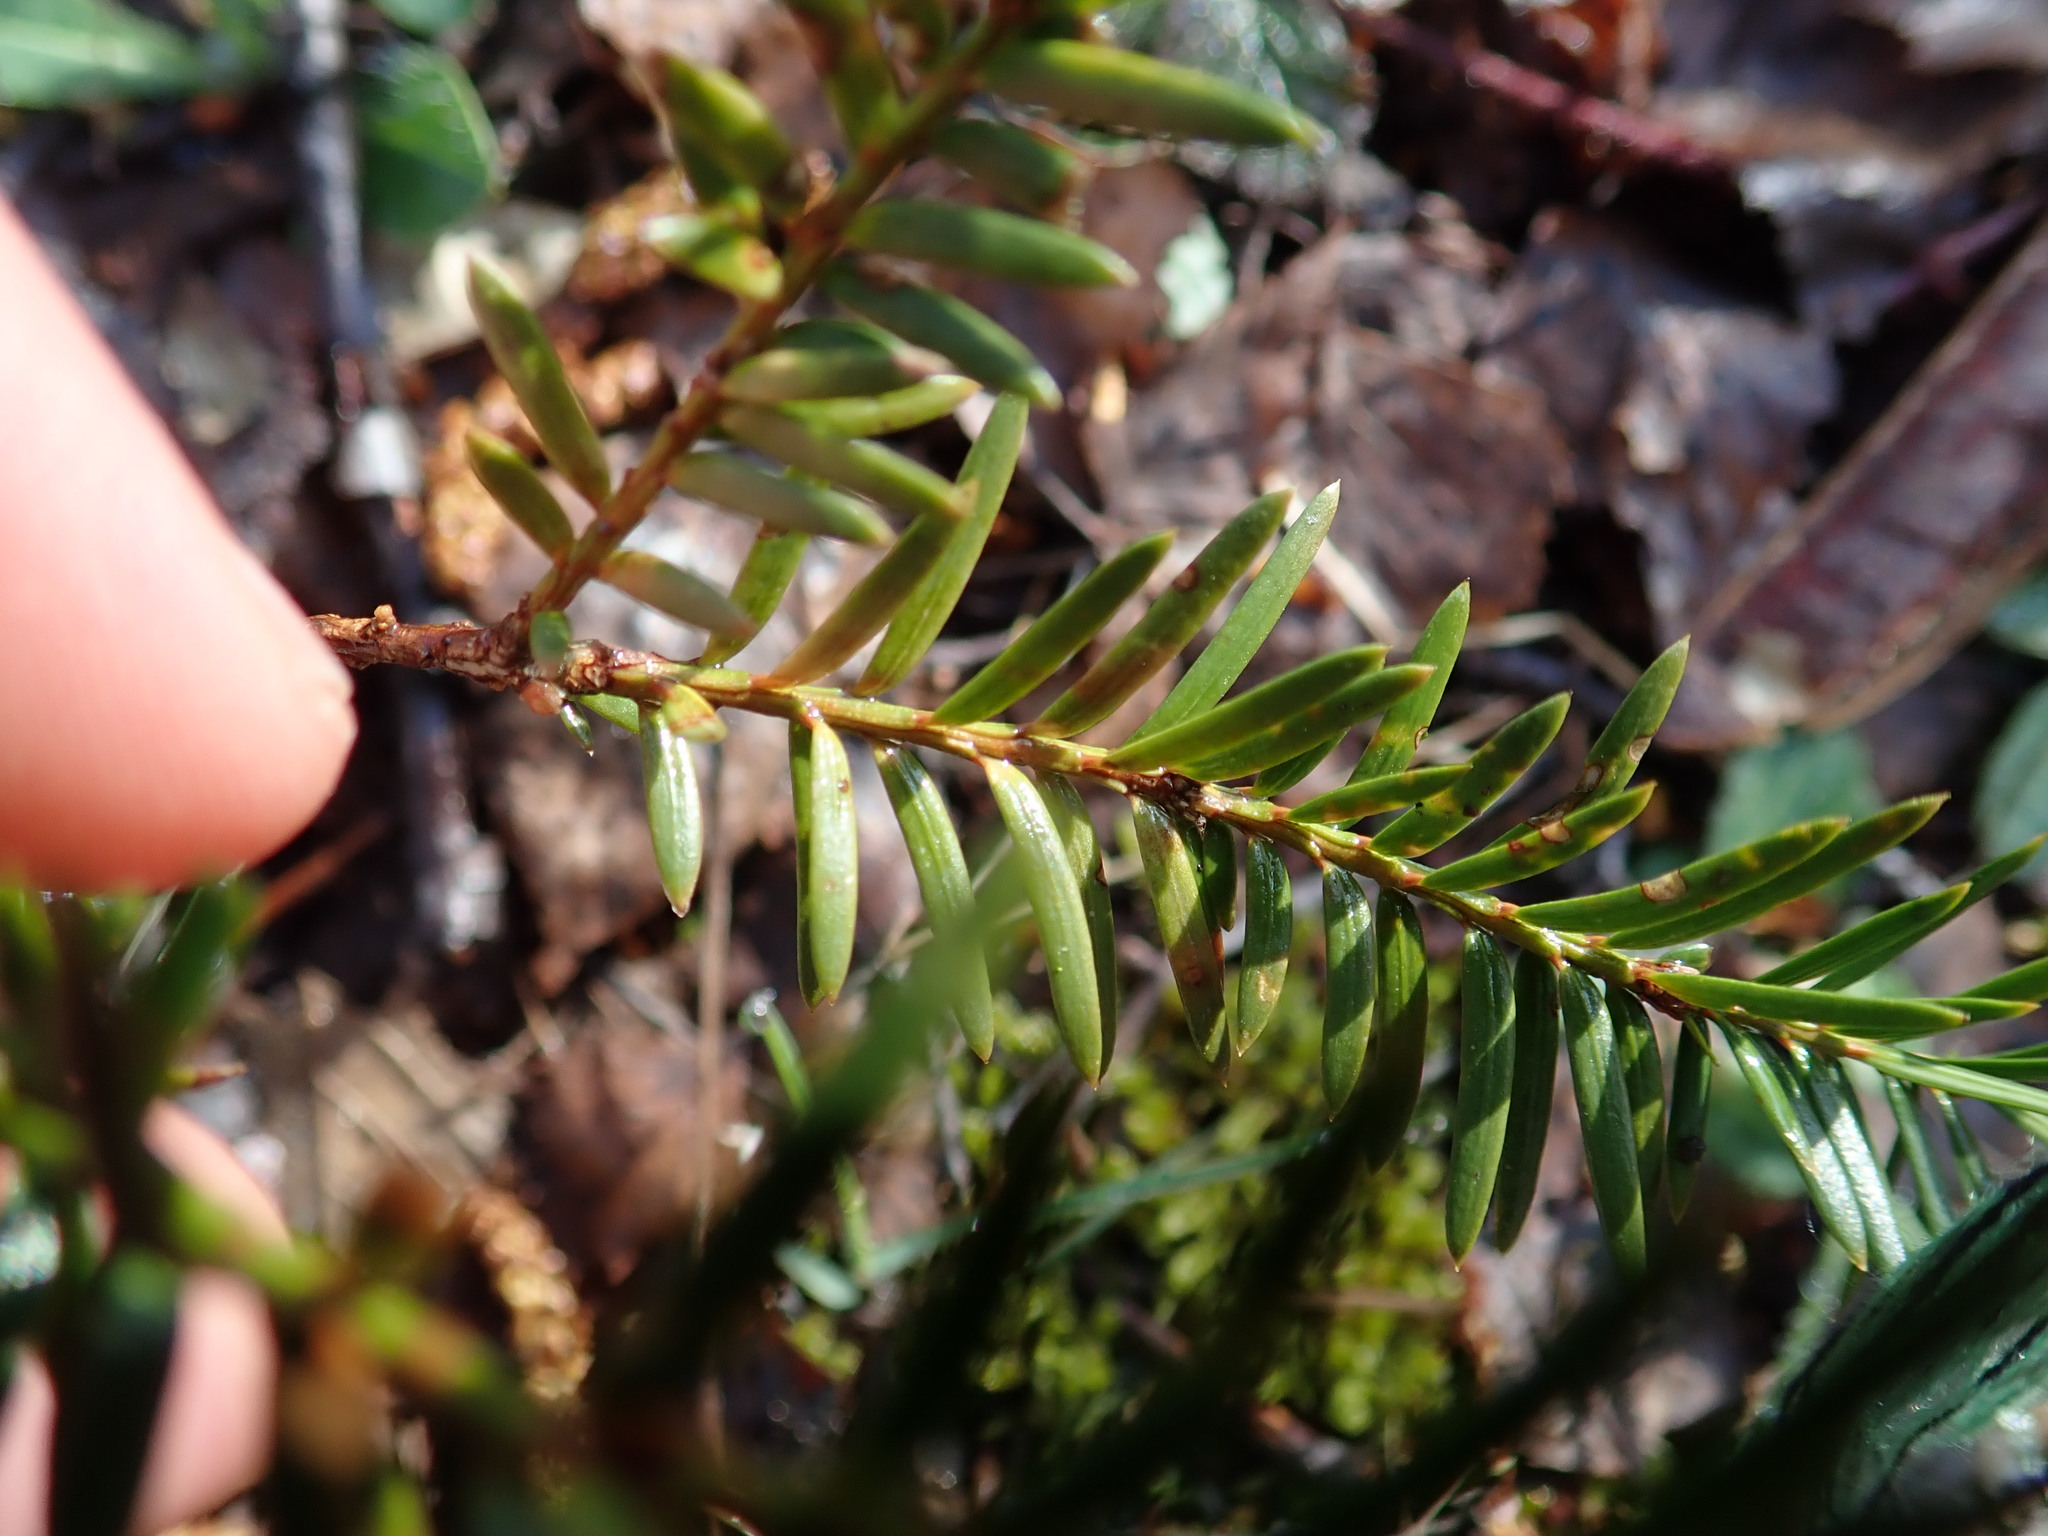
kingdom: Plantae
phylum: Tracheophyta
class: Pinopsida
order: Pinales
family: Taxaceae
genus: Taxus
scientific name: Taxus baccata
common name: Yew
